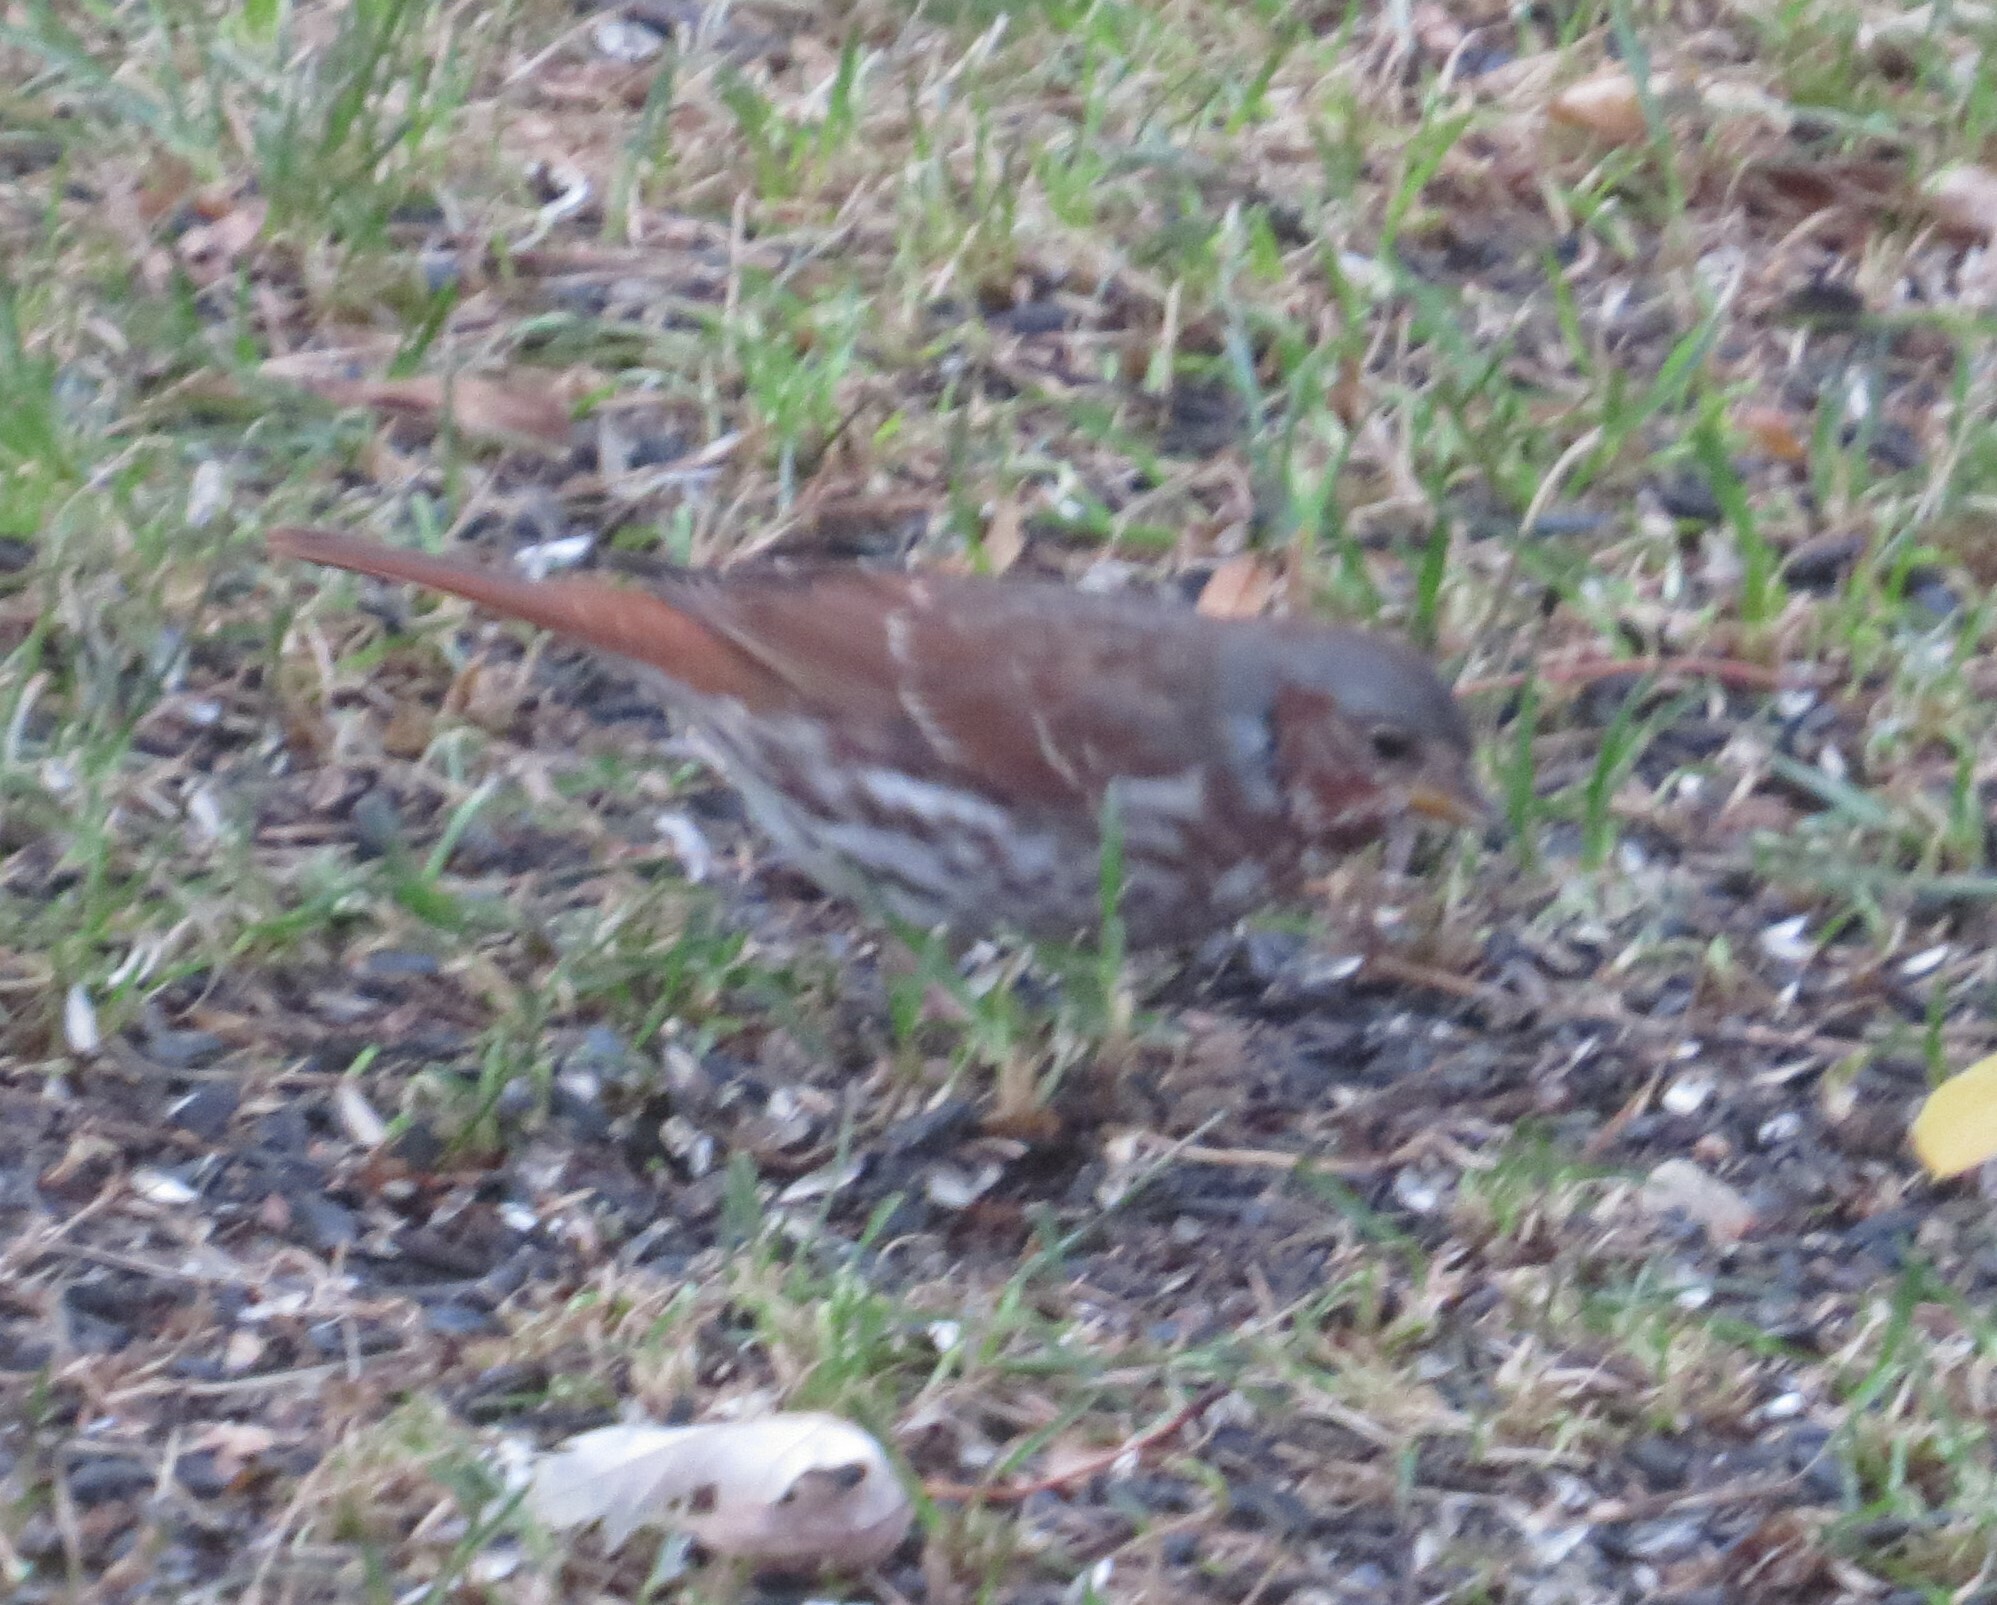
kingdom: Animalia
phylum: Chordata
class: Aves
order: Passeriformes
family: Passerellidae
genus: Passerella
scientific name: Passerella iliaca
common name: Fox sparrow
